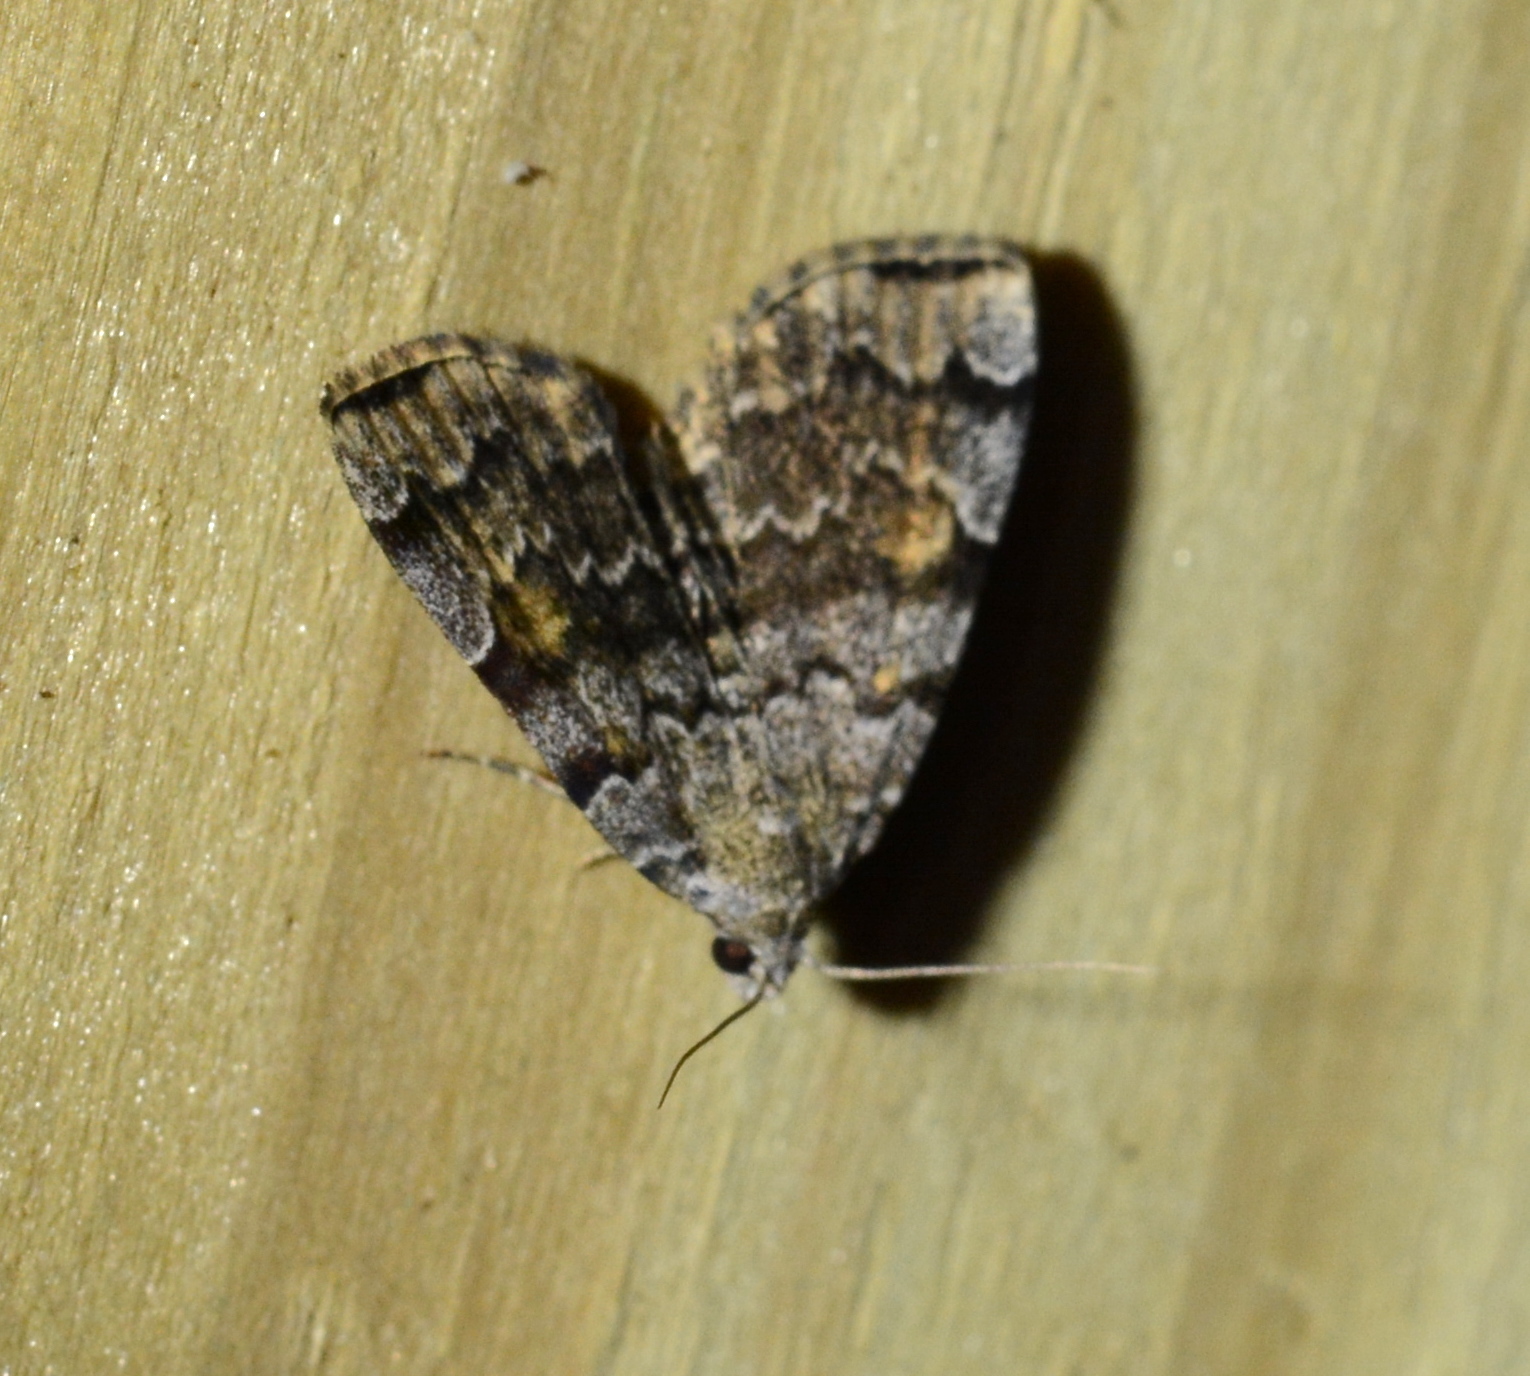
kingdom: Animalia
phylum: Arthropoda
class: Insecta
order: Lepidoptera
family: Erebidae
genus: Idia
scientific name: Idia americalis
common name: American idia moth
